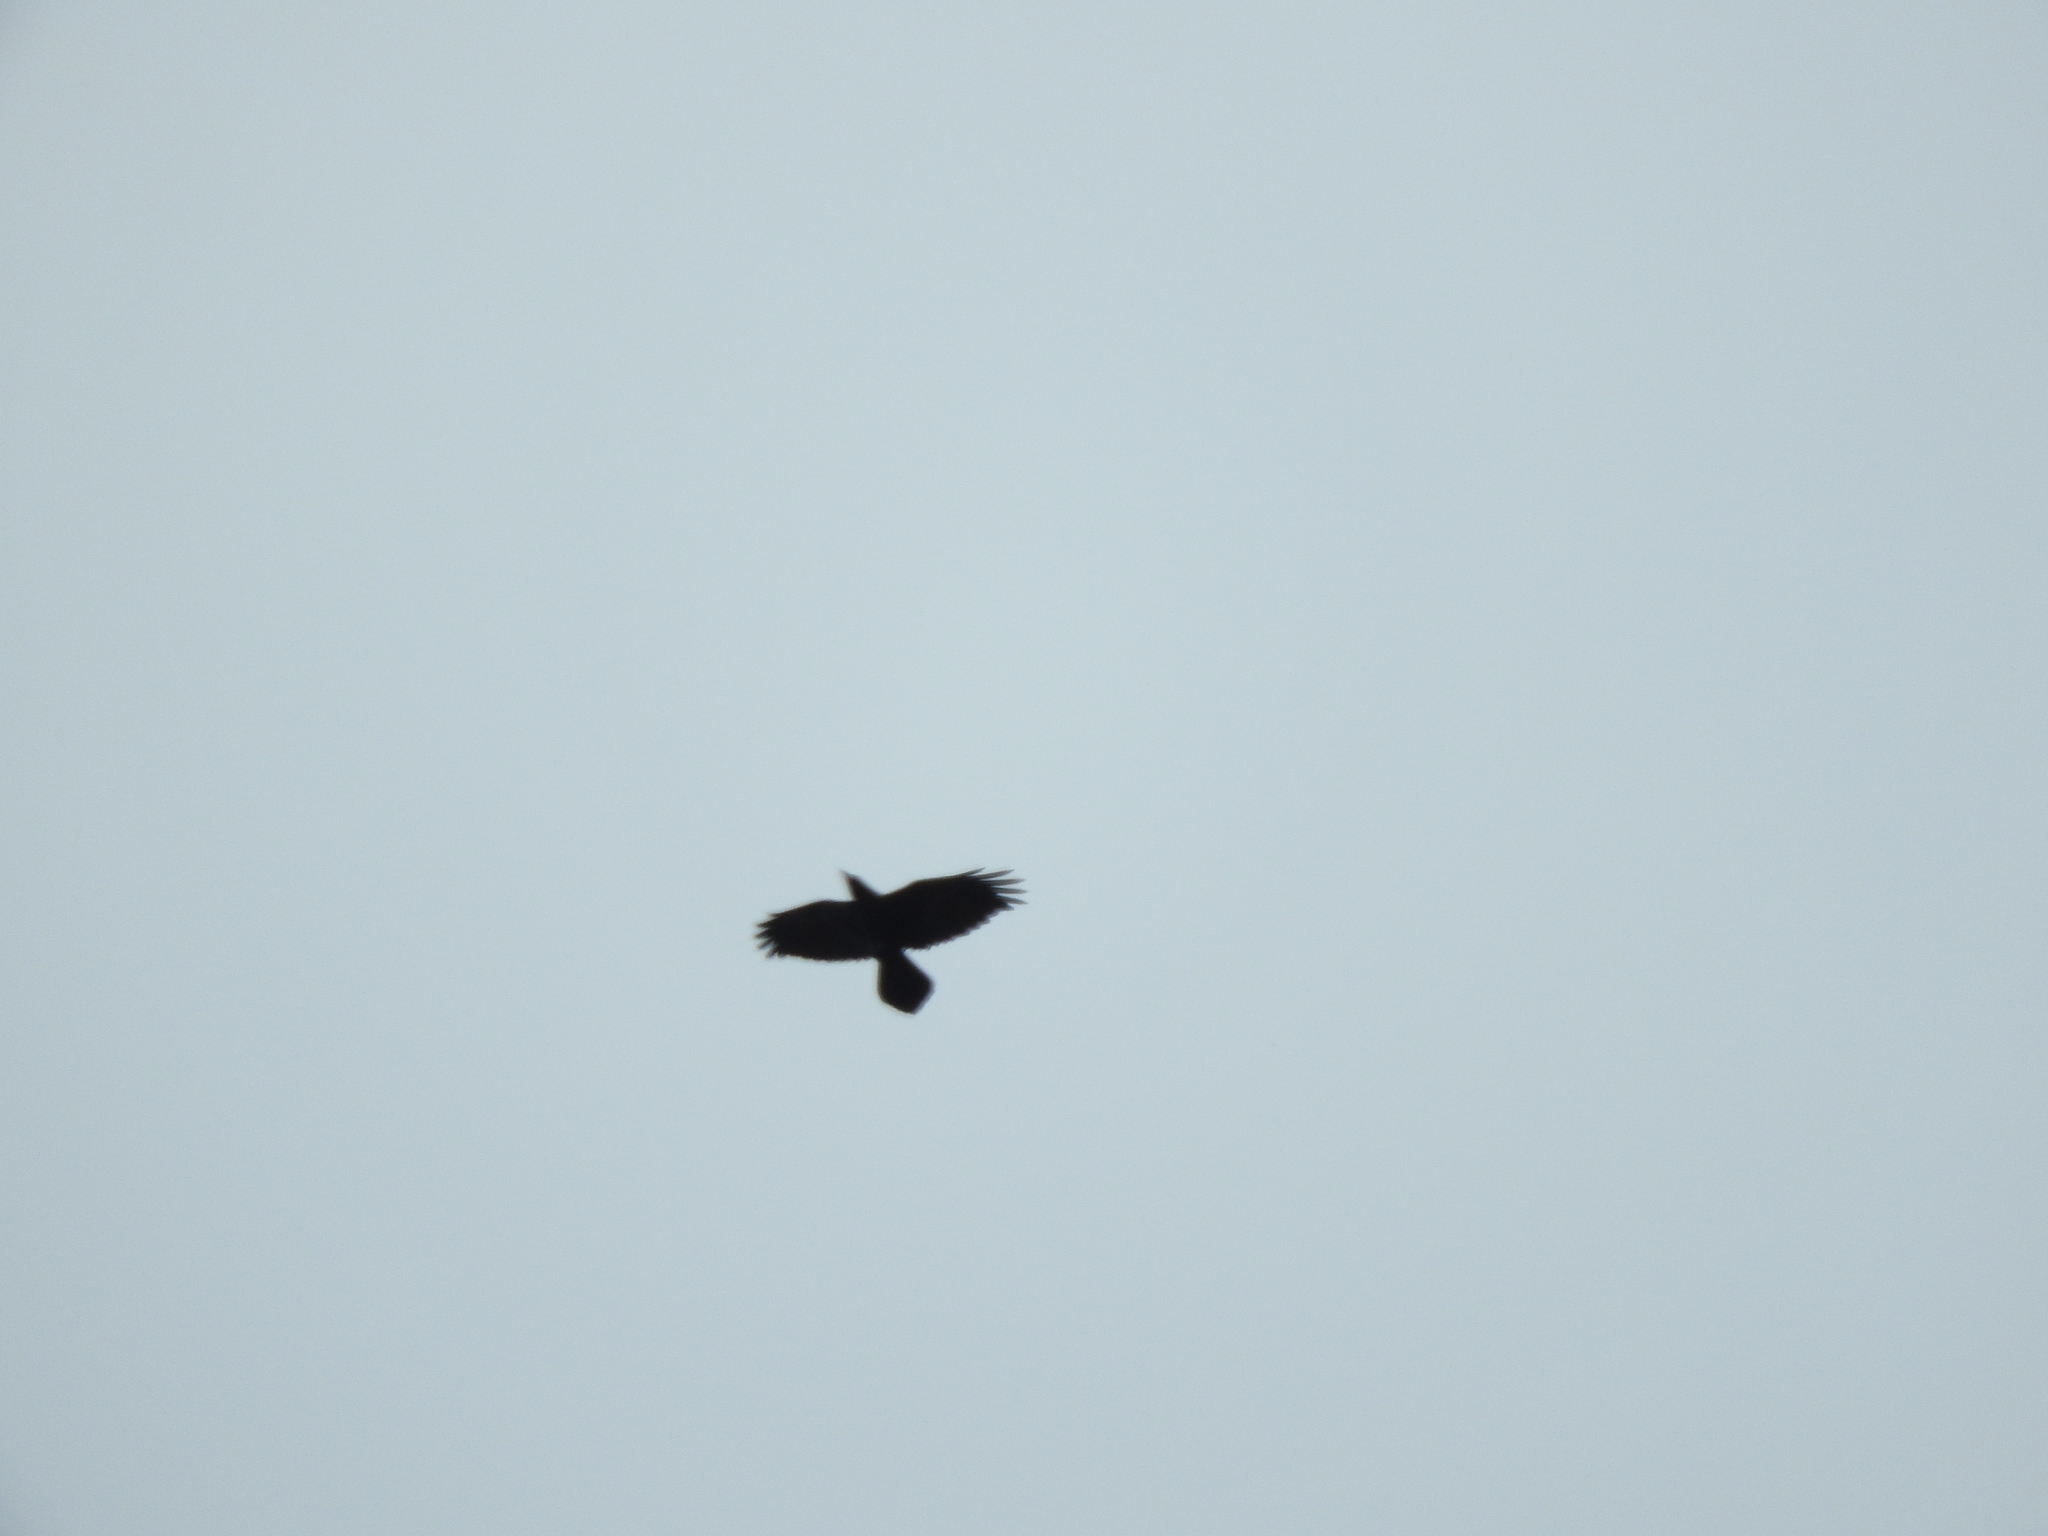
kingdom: Animalia
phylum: Chordata
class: Aves
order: Passeriformes
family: Corvidae
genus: Corvus
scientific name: Corvus corax
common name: Common raven
